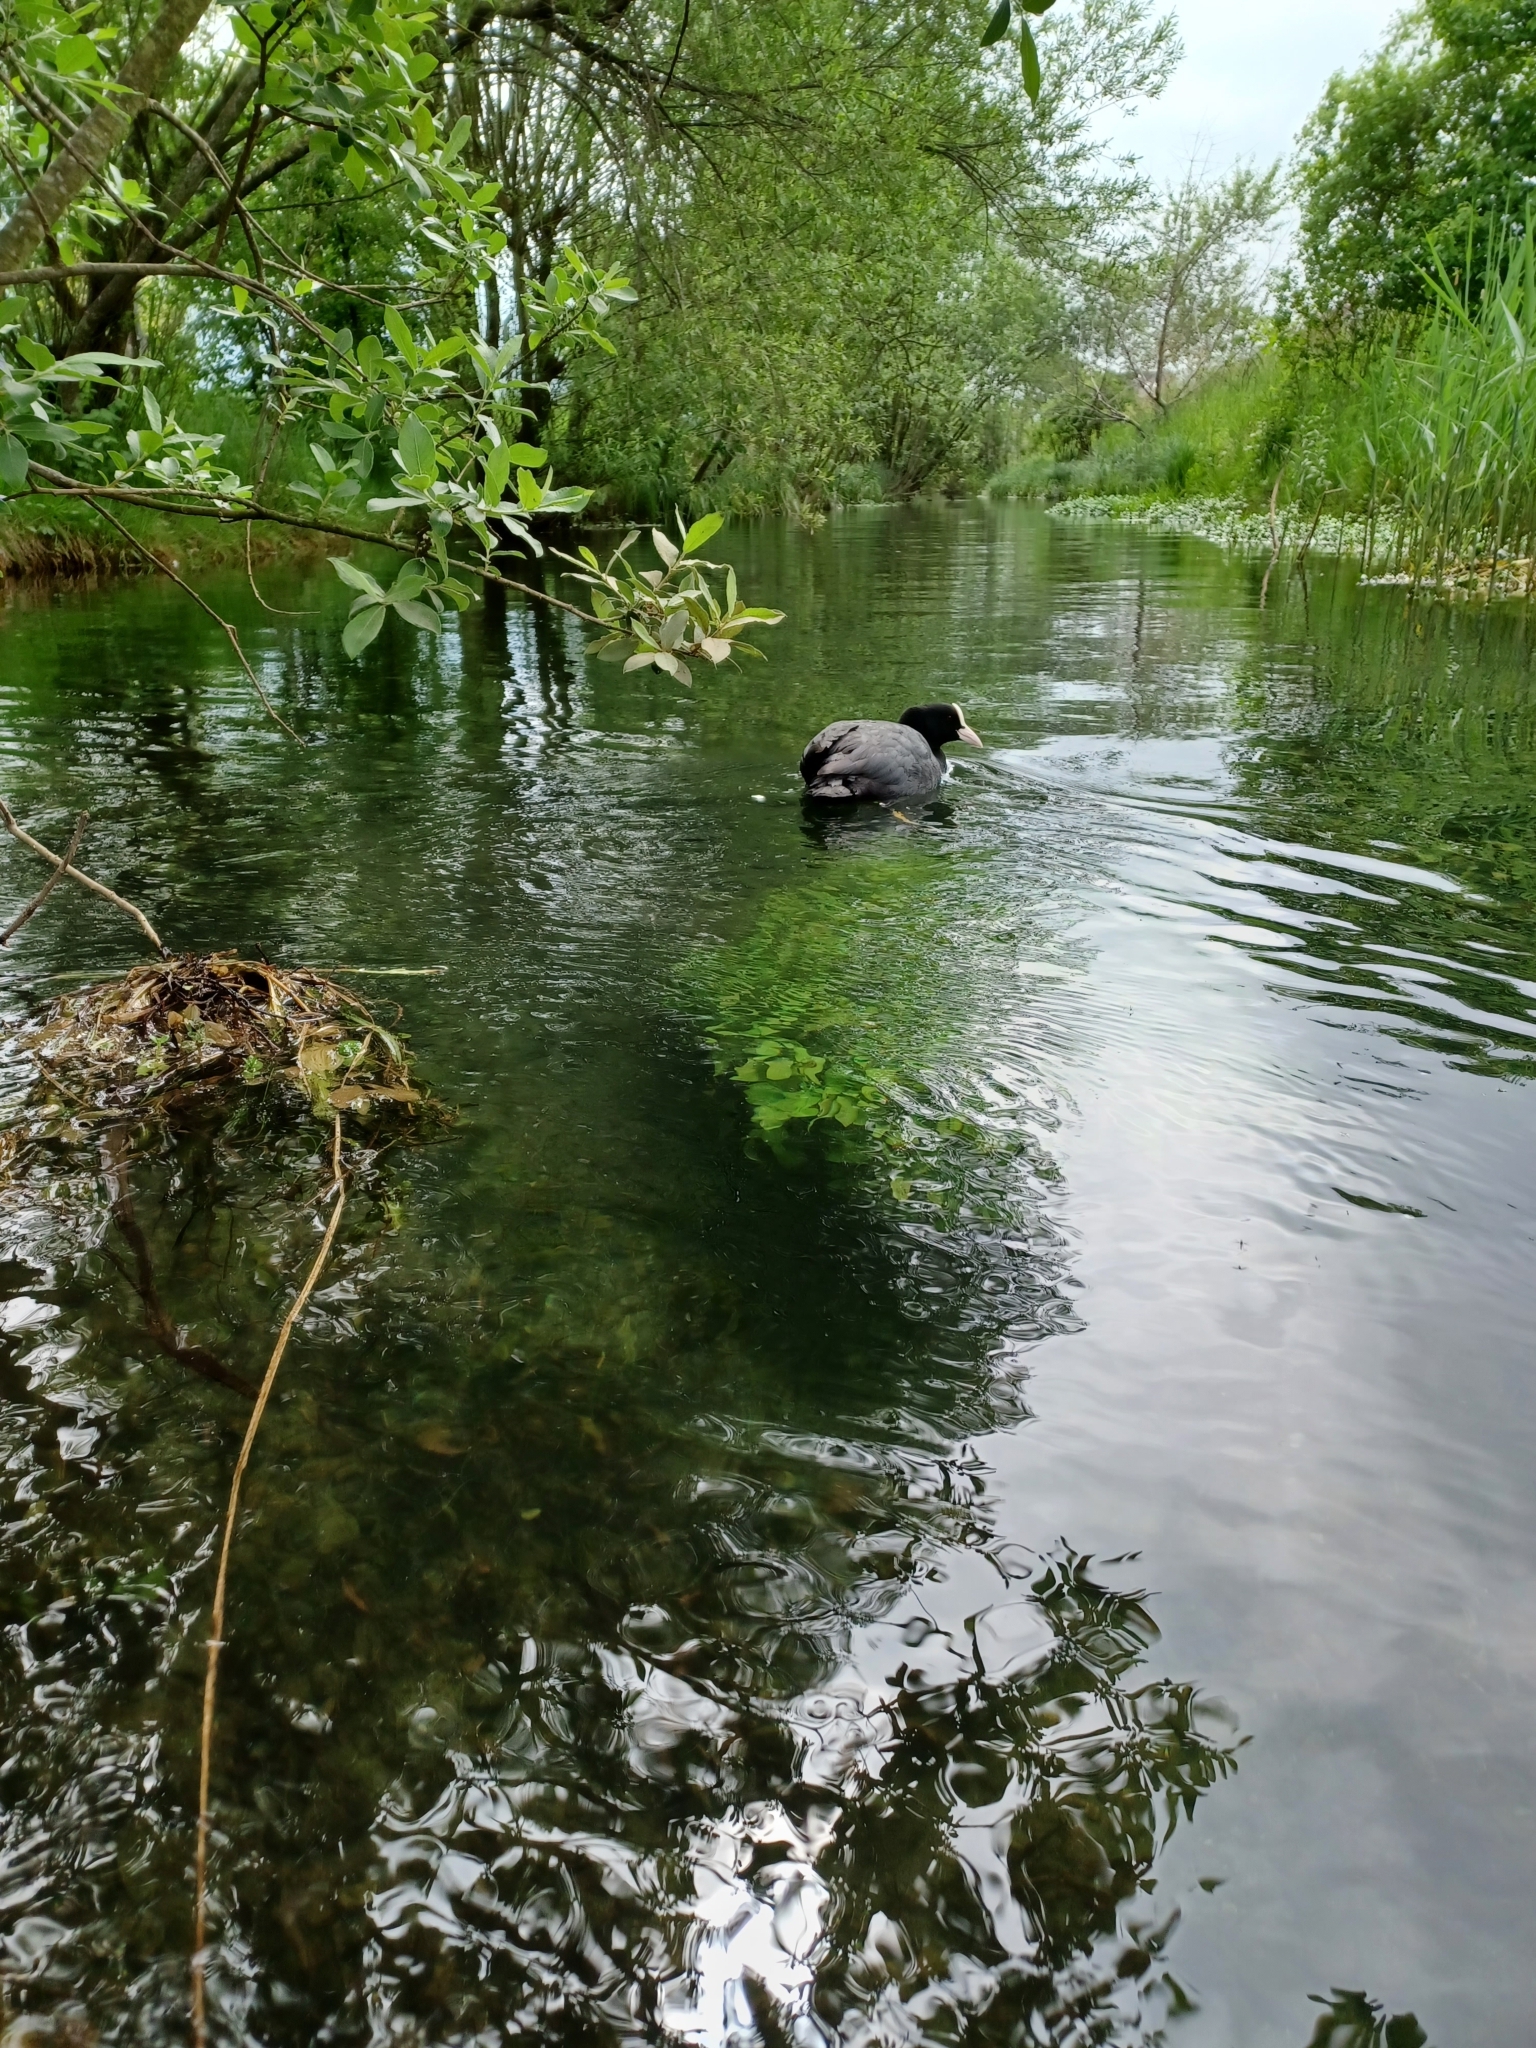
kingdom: Animalia
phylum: Chordata
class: Aves
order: Gruiformes
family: Rallidae
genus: Fulica
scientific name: Fulica atra
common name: Eurasian coot
